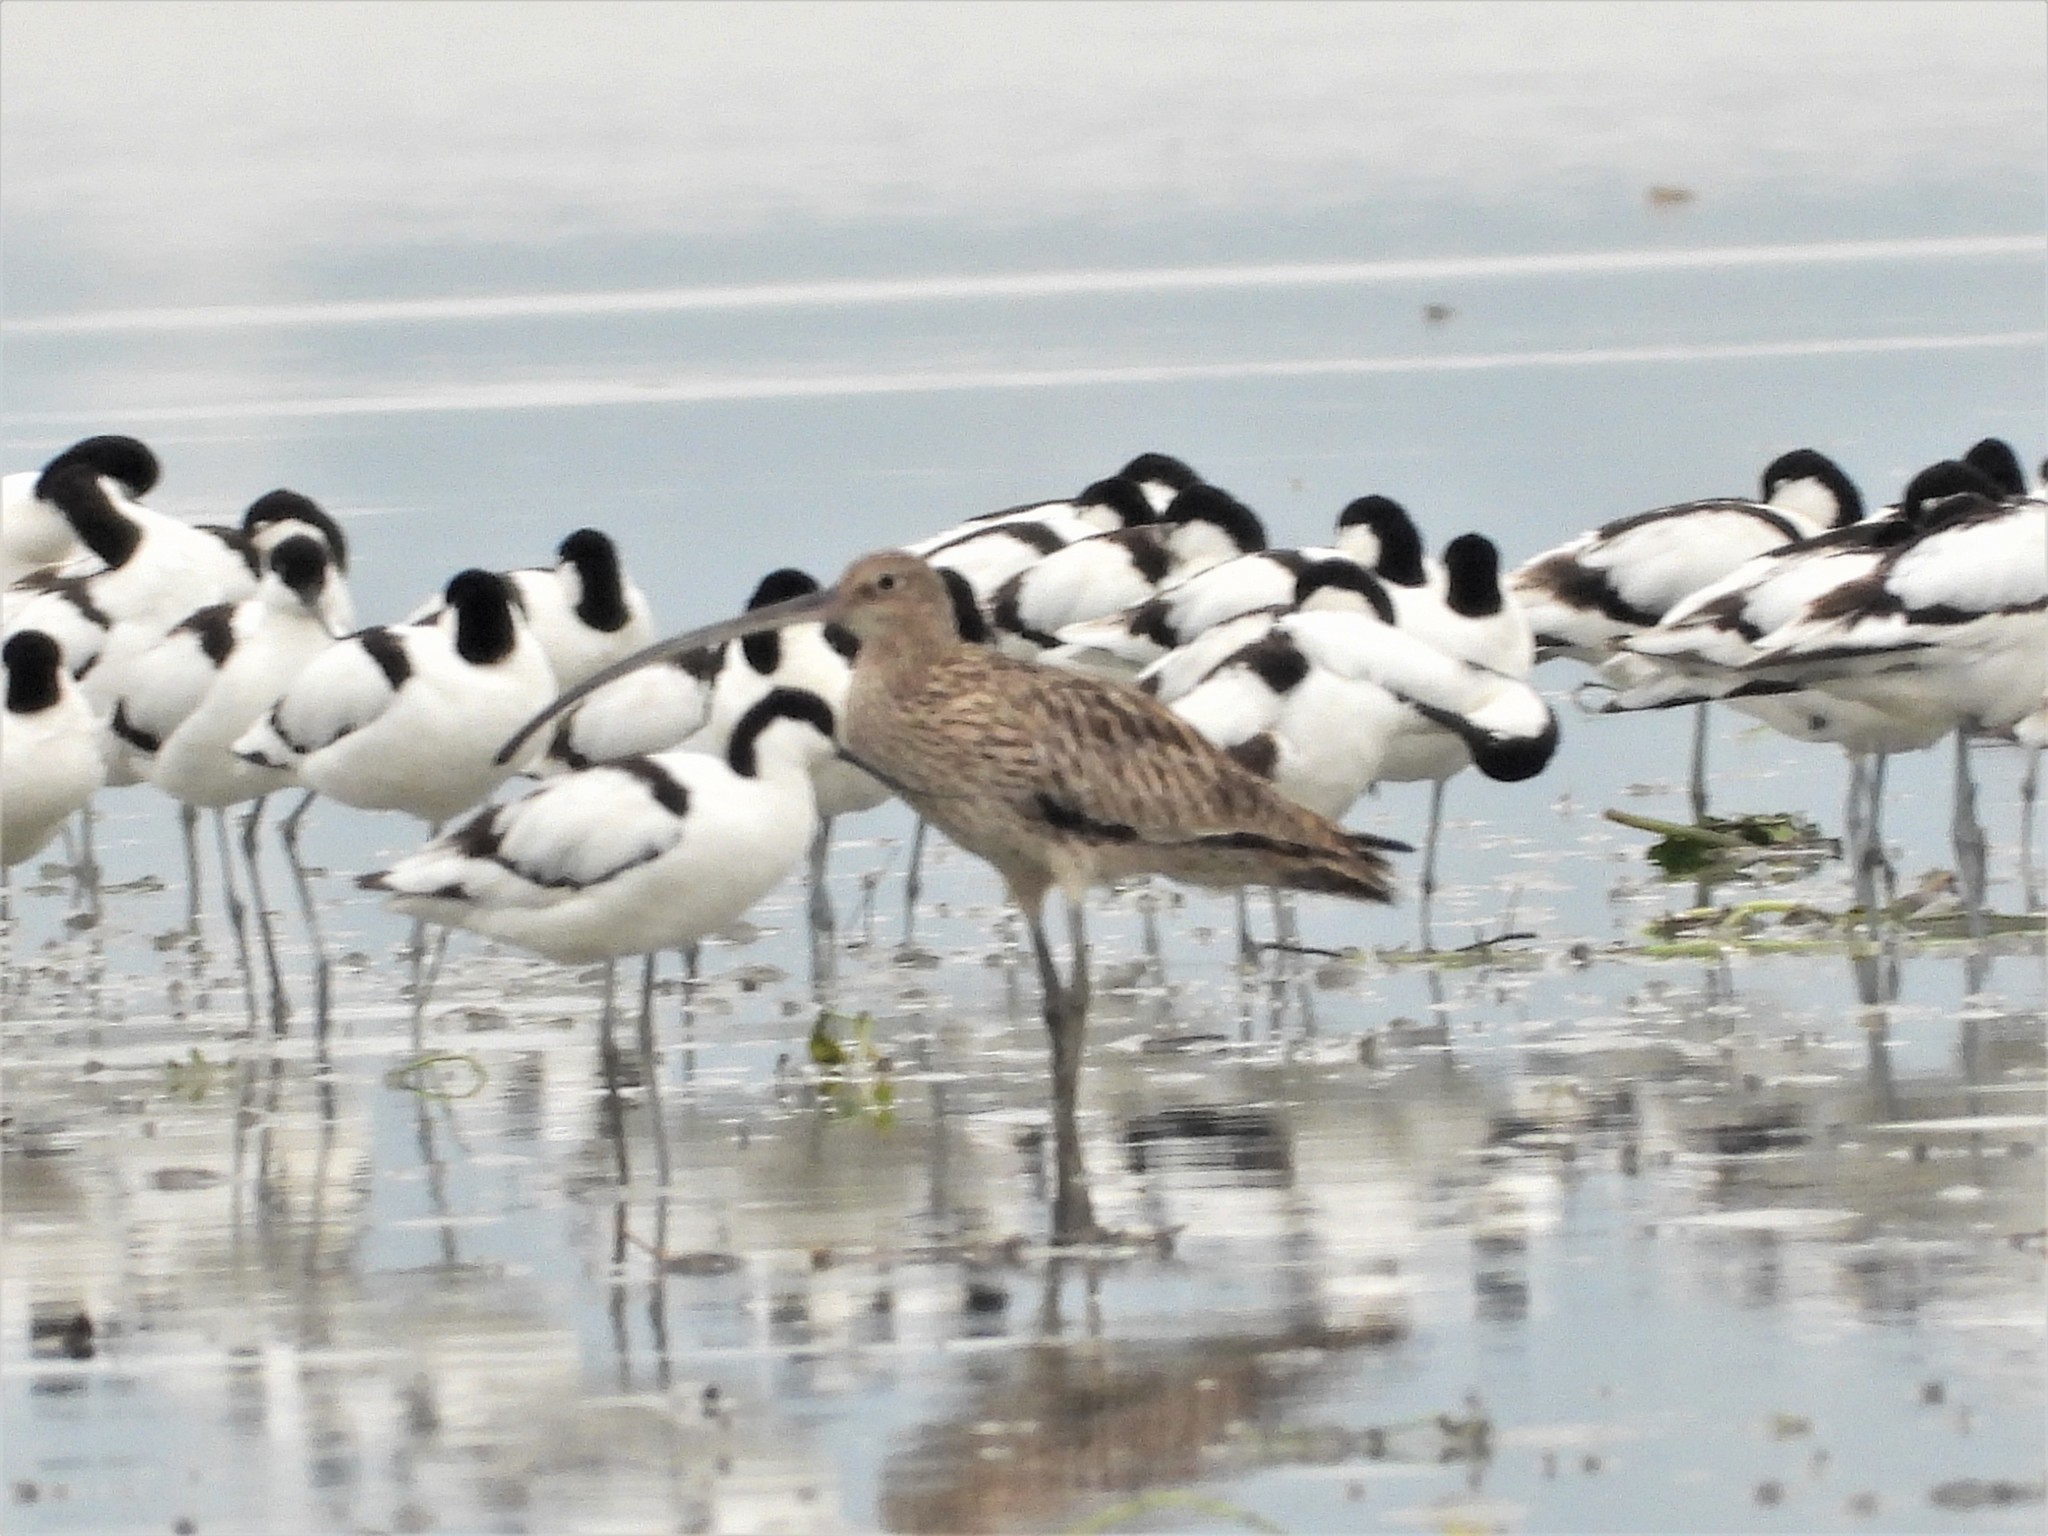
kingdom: Animalia
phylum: Chordata
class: Aves
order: Charadriiformes
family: Scolopacidae
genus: Numenius
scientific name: Numenius arquata
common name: Eurasian curlew
